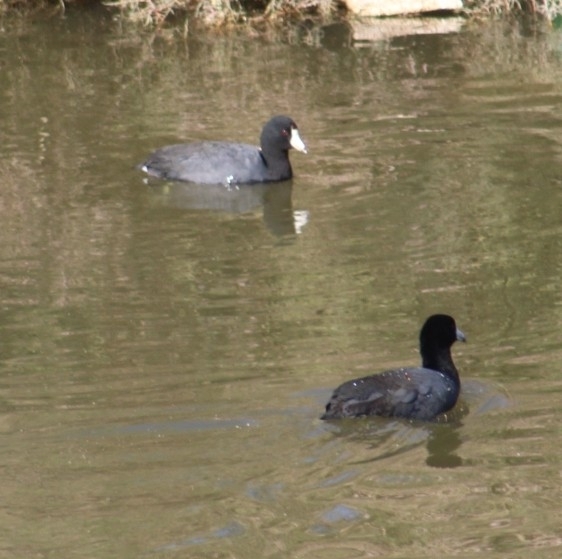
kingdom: Animalia
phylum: Chordata
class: Aves
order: Gruiformes
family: Rallidae
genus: Fulica
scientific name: Fulica americana
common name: American coot
